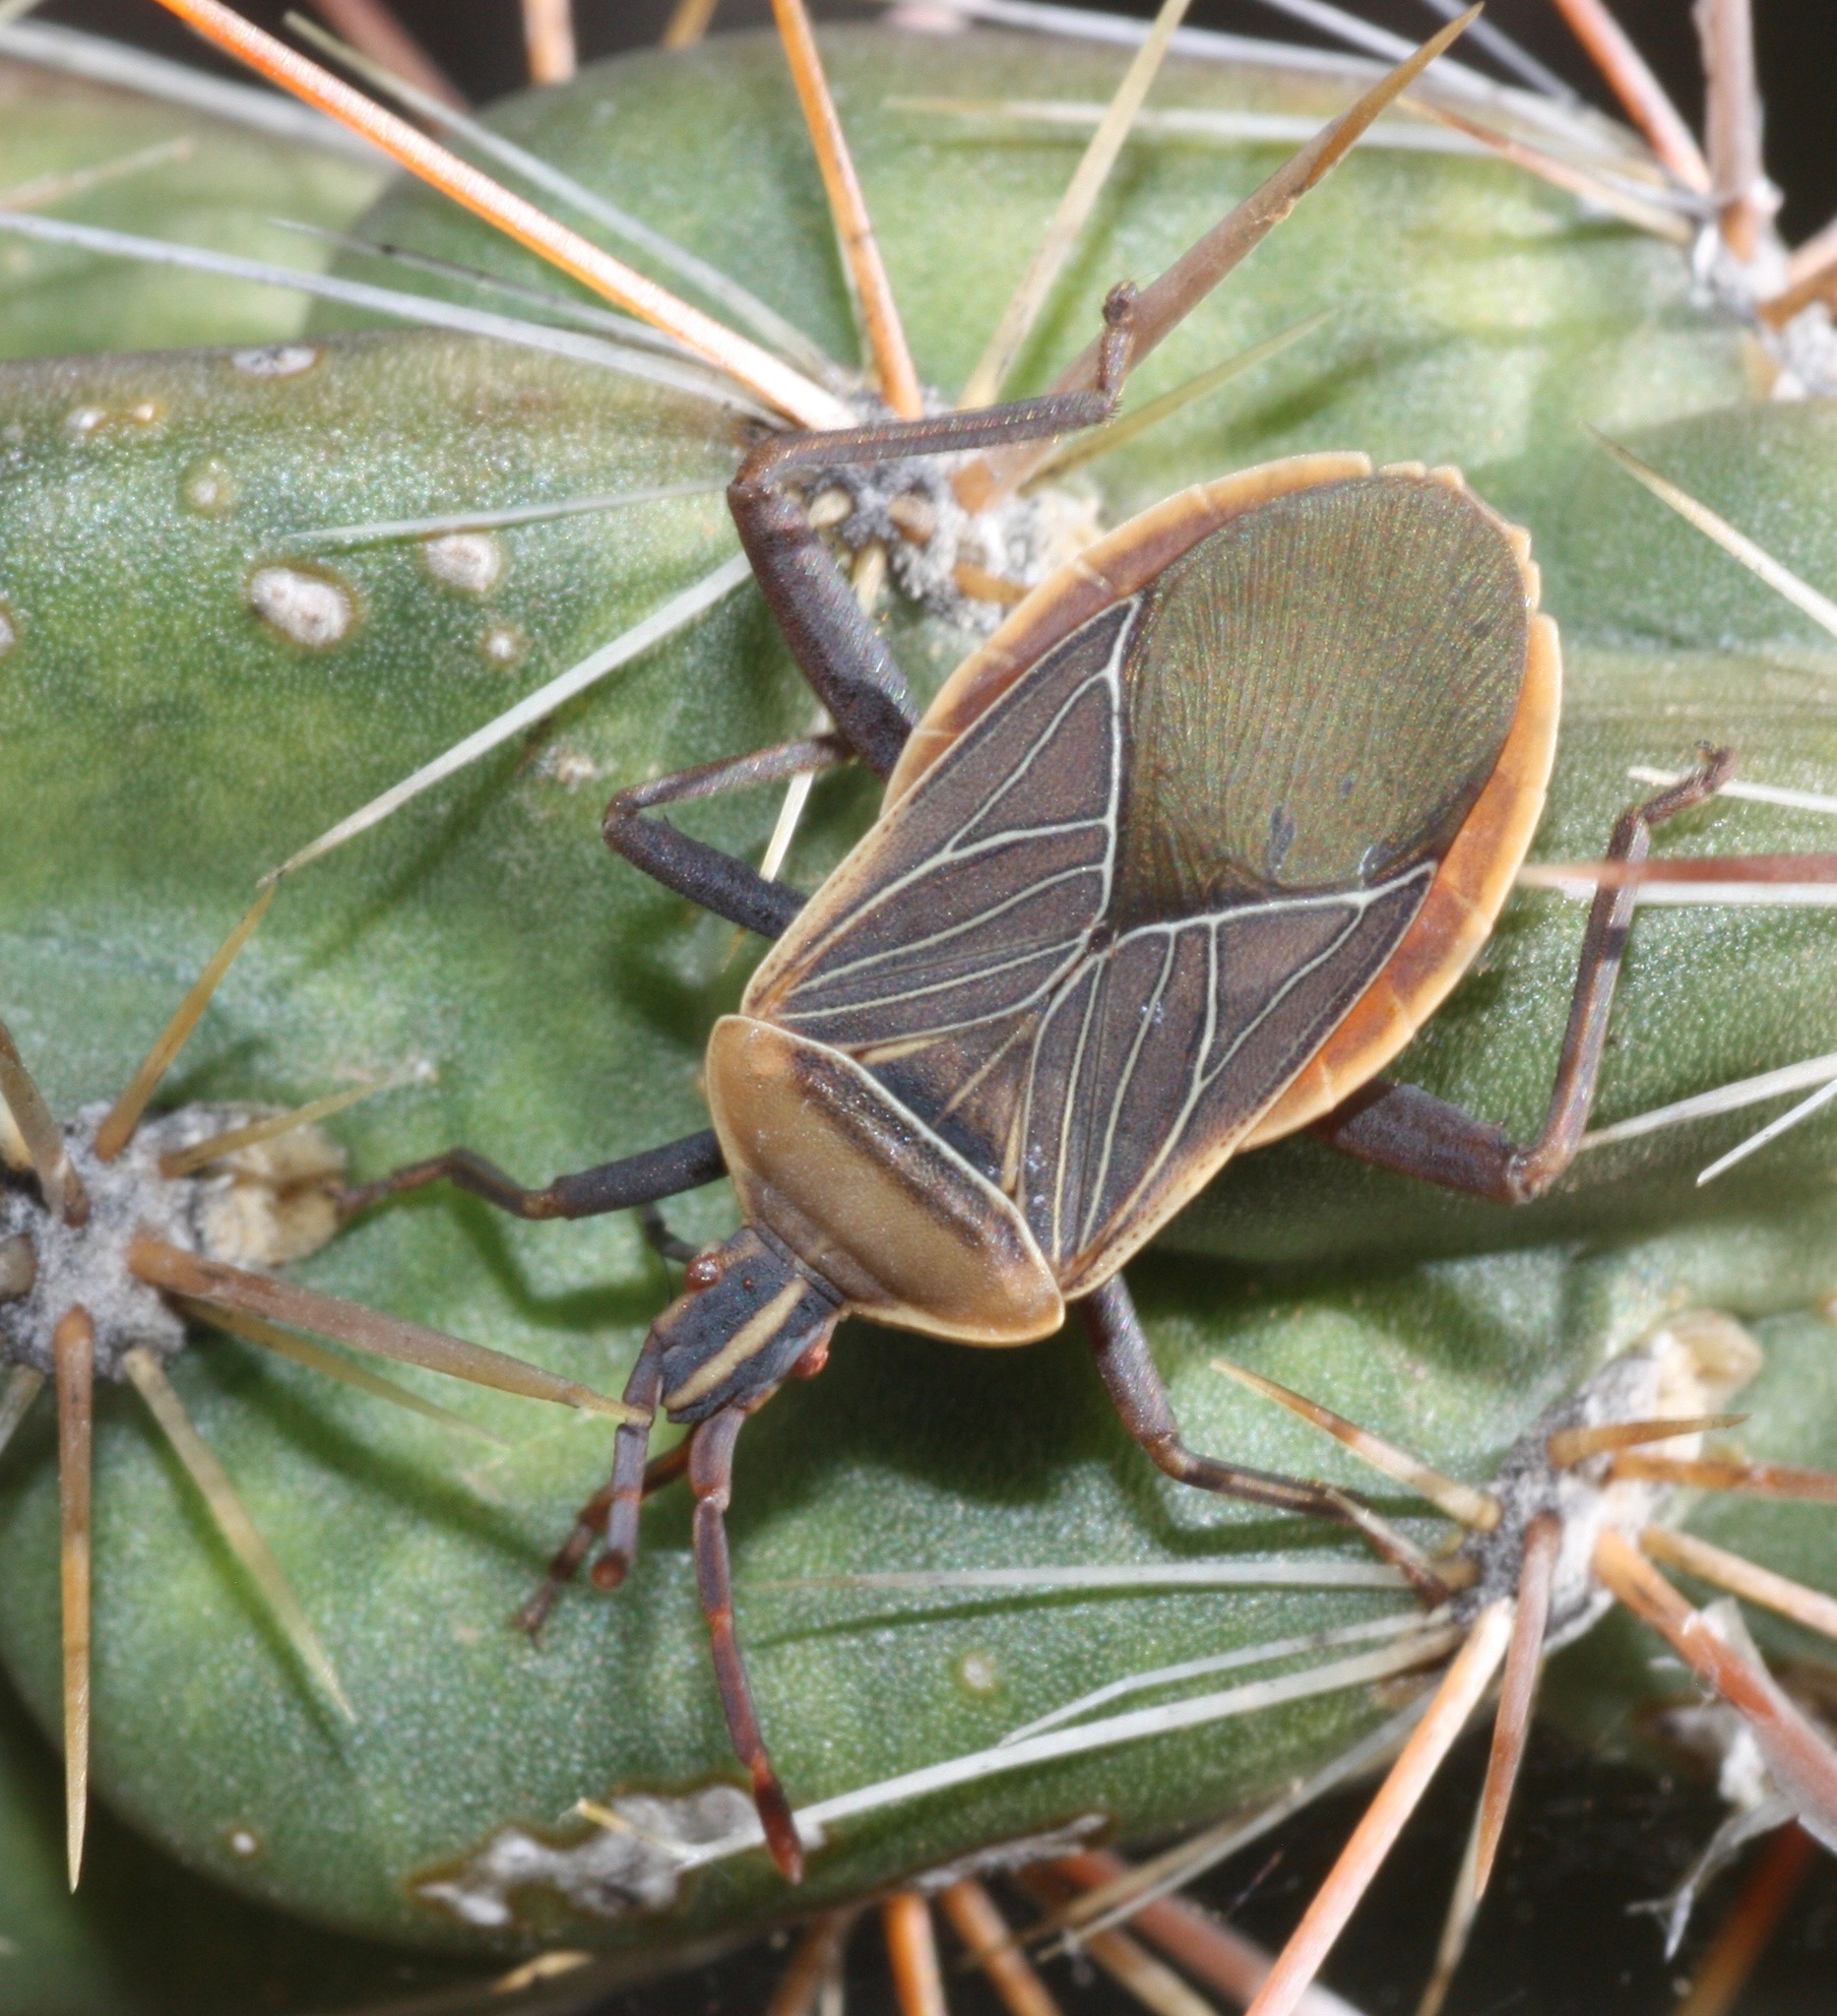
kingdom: Animalia
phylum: Arthropoda
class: Insecta
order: Hemiptera
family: Coreidae
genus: Chelinidea
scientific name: Chelinidea vittiger
